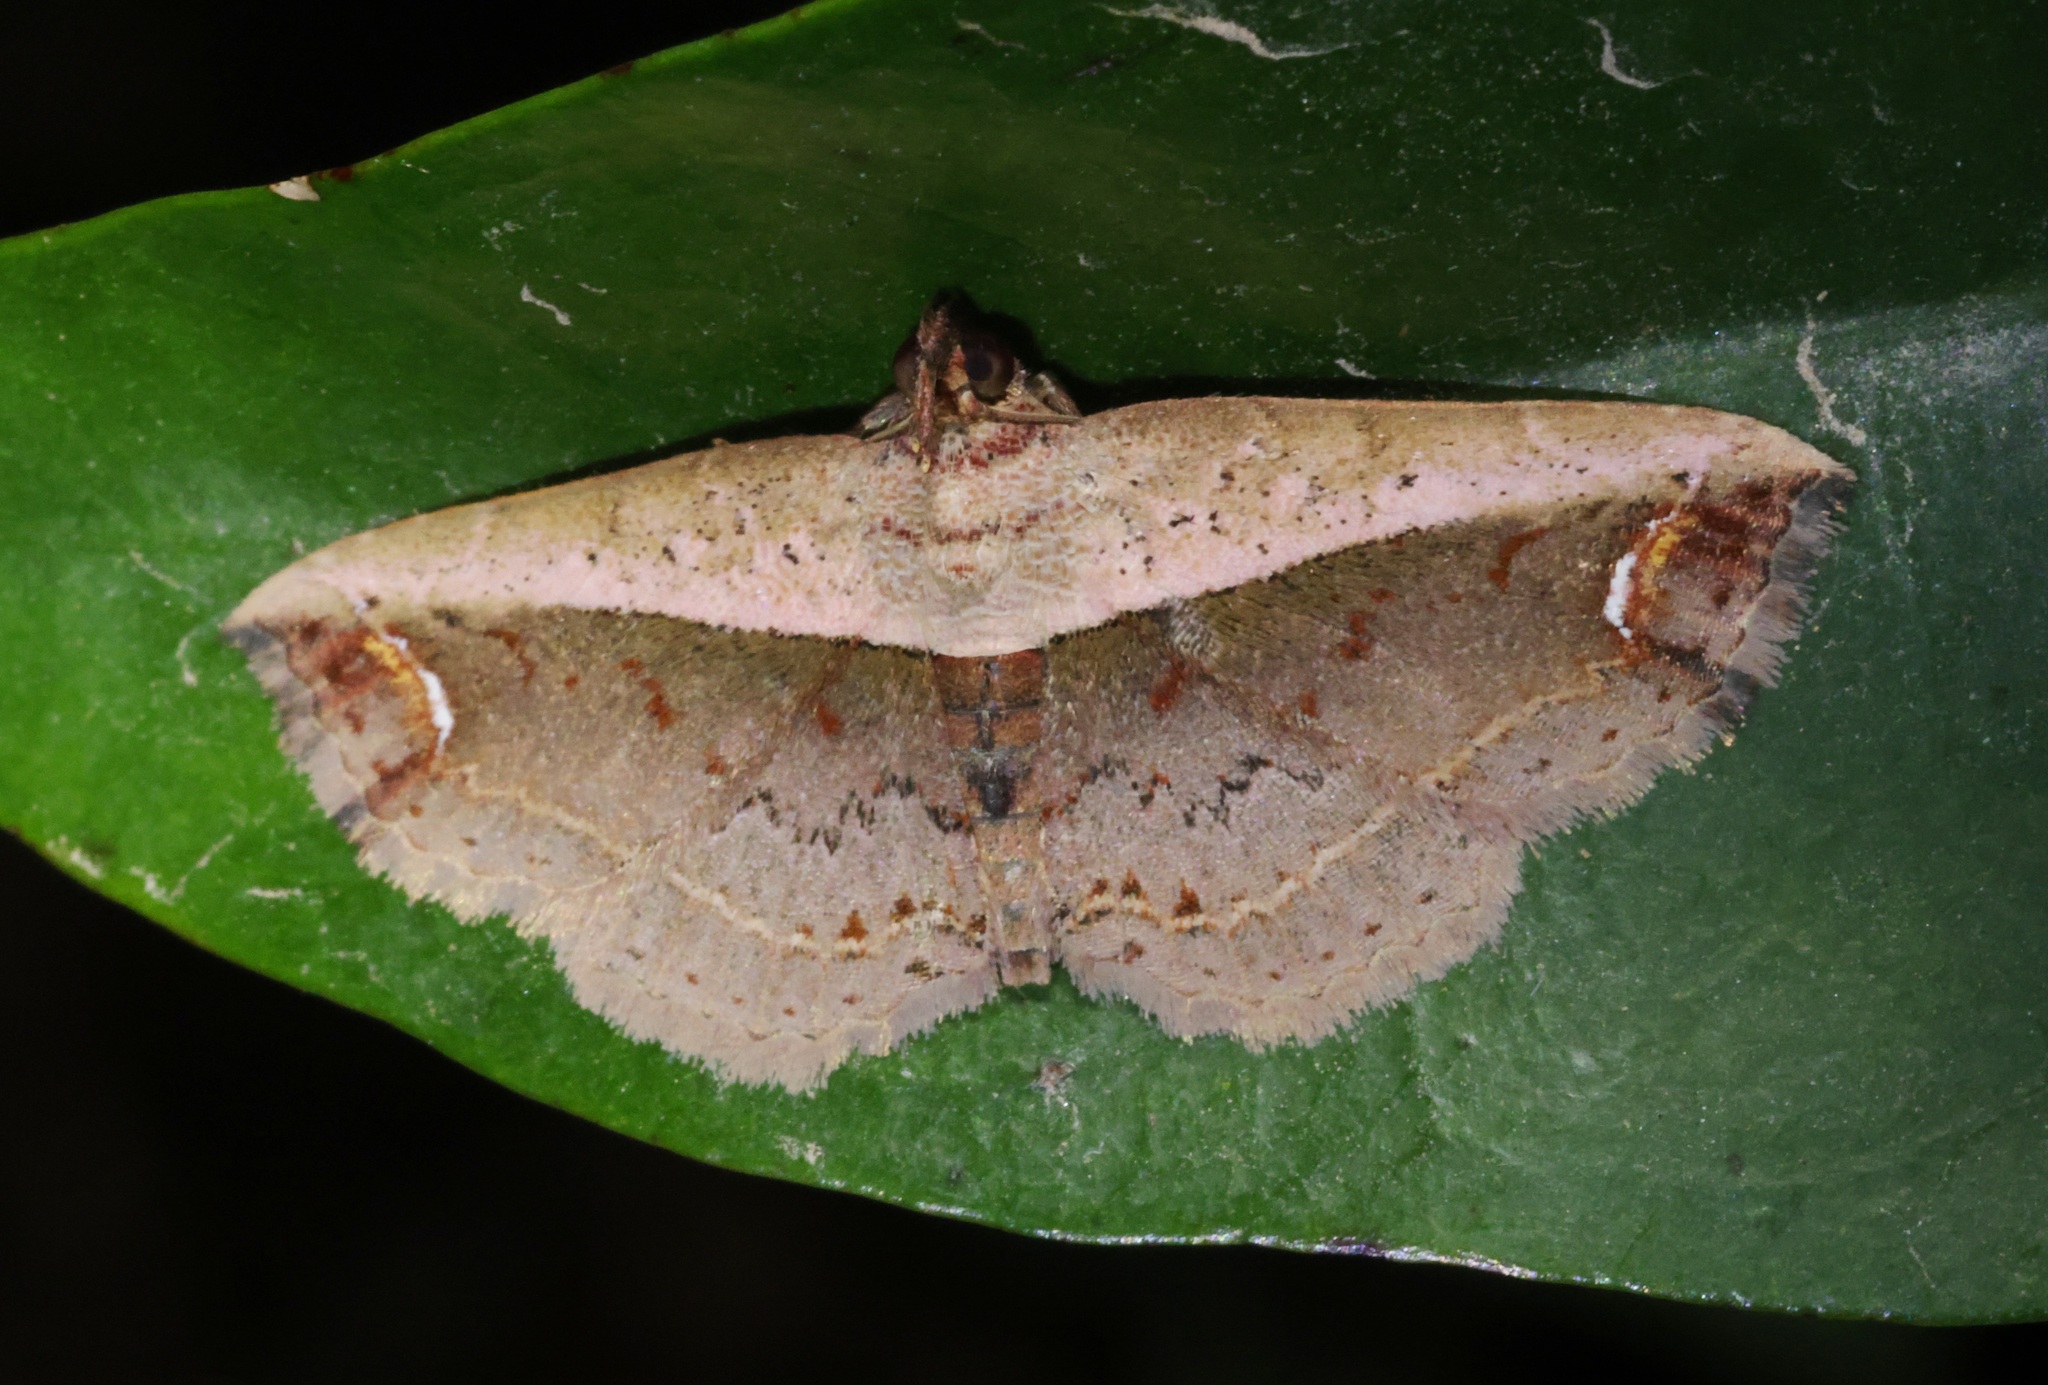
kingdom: Animalia
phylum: Arthropoda
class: Insecta
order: Lepidoptera
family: Noctuidae
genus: Eugnathia
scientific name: Eugnathia lunifera
